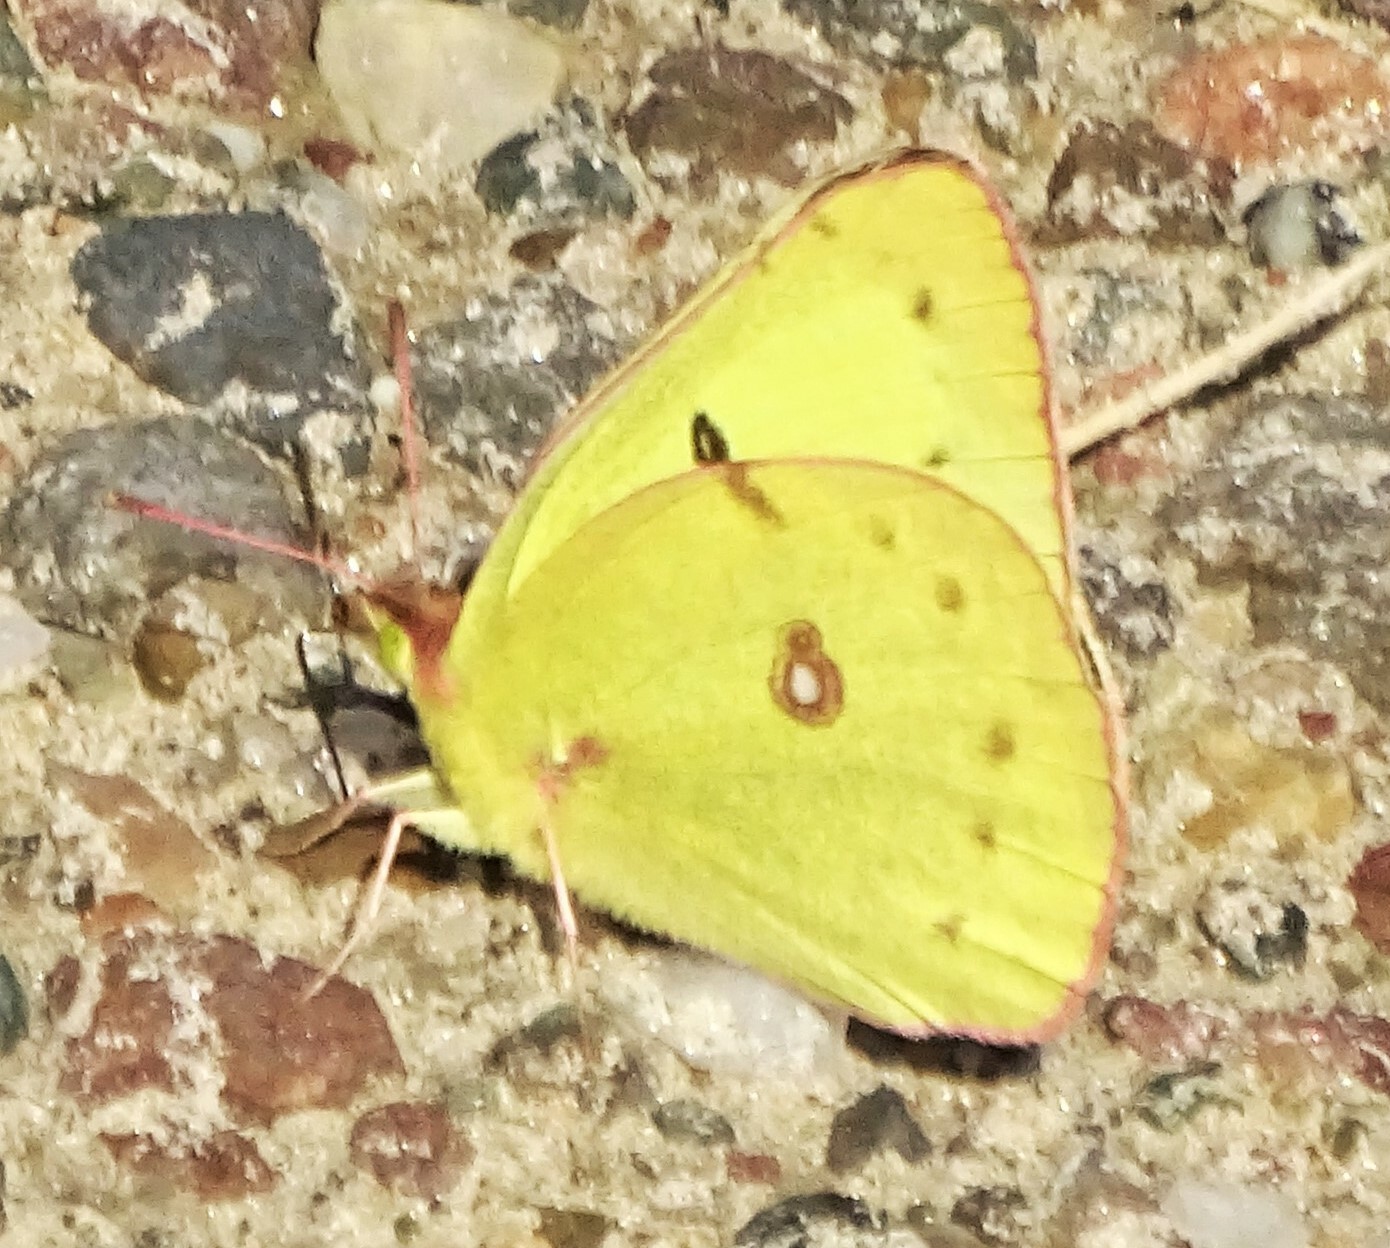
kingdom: Animalia
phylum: Arthropoda
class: Insecta
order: Lepidoptera
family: Pieridae
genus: Colias
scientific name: Colias philodice
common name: Clouded sulphur
